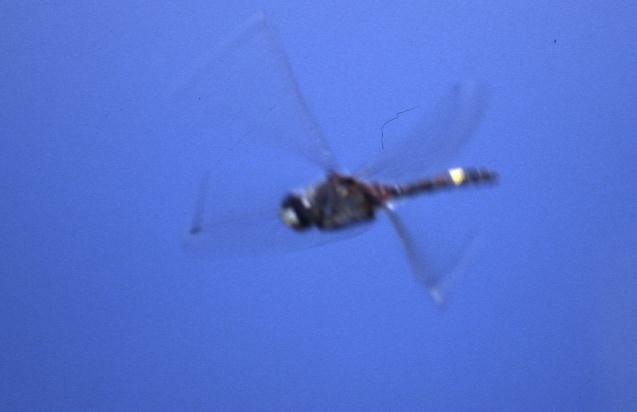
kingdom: Animalia
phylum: Arthropoda
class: Insecta
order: Odonata
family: Libellulidae
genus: Leucorrhinia
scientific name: Leucorrhinia pectoralis
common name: Yellow-spotted whiteface
